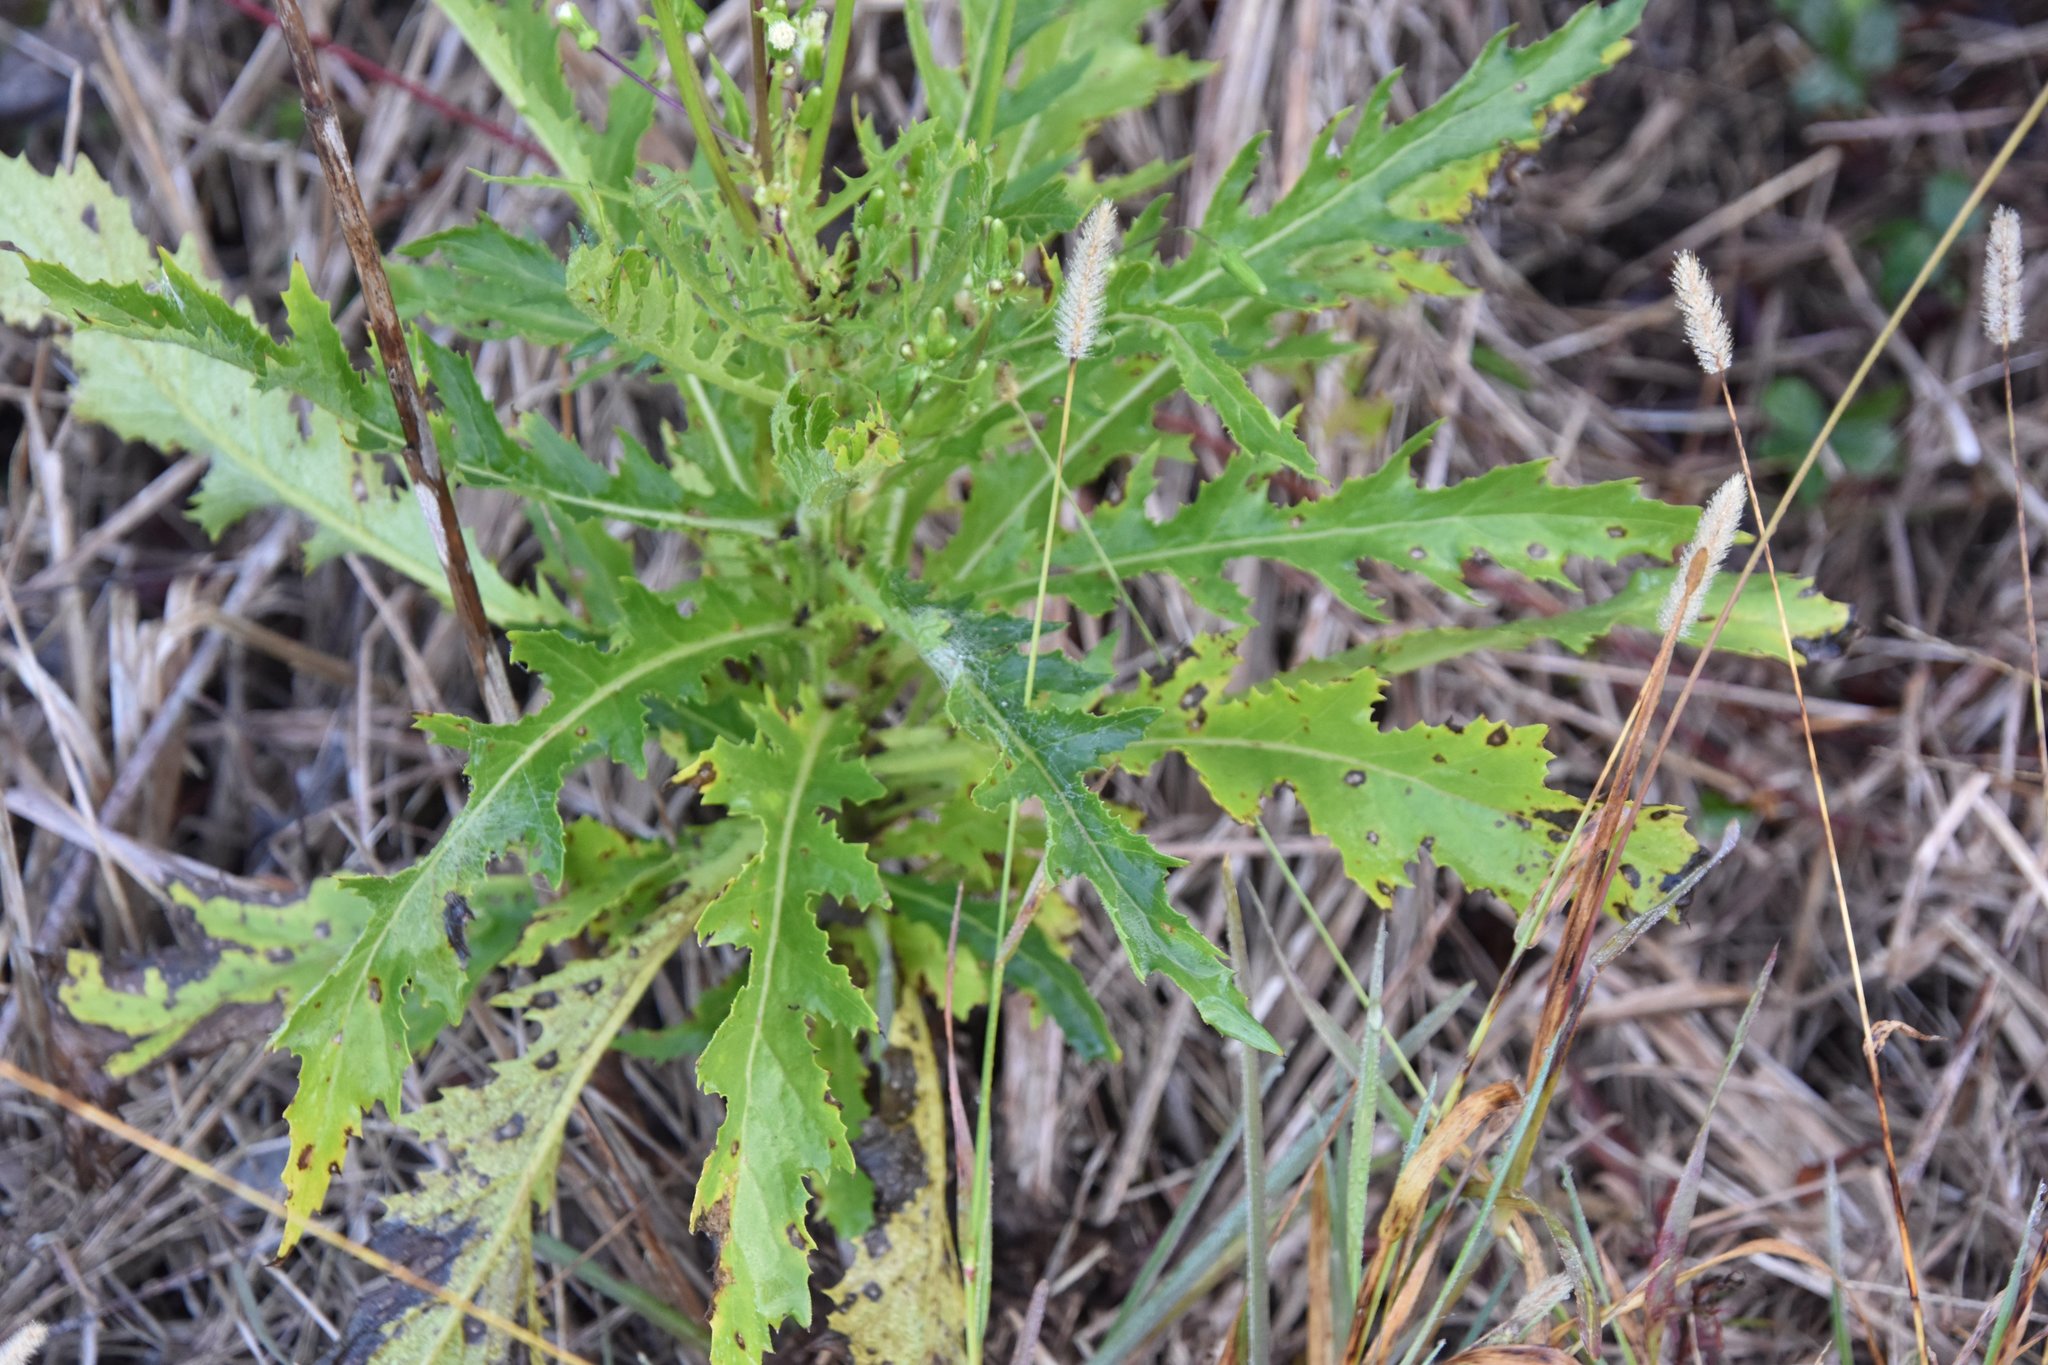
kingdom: Plantae
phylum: Tracheophyta
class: Magnoliopsida
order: Asterales
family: Asteraceae
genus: Erechtites
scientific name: Erechtites hieraciifolius
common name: American burnweed
